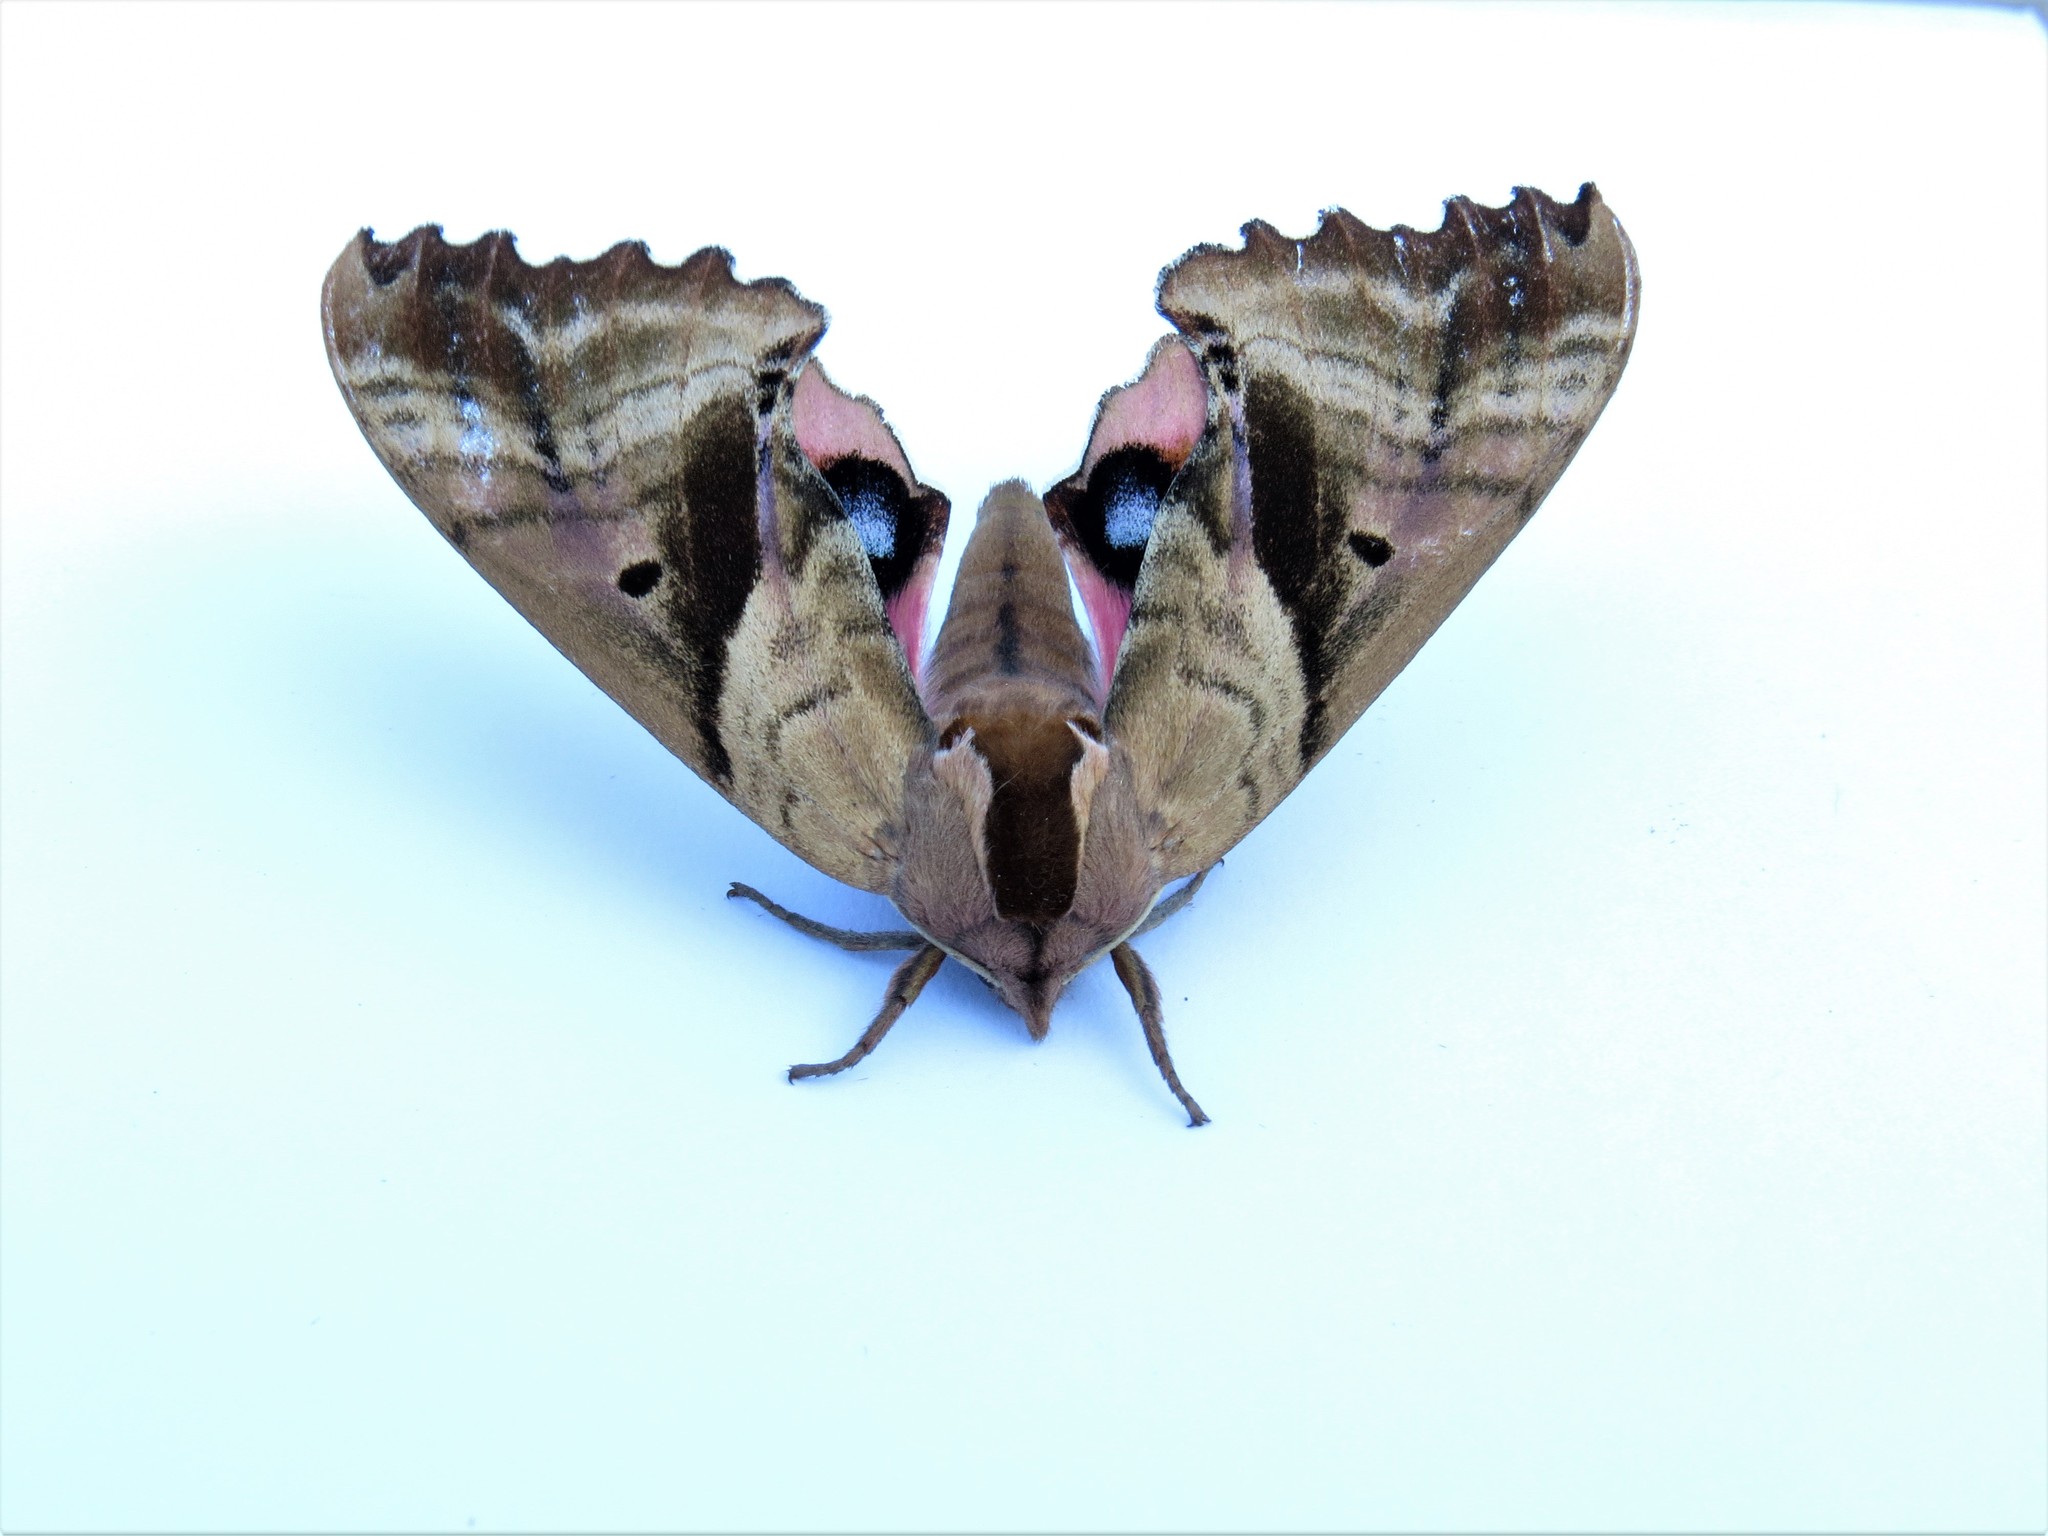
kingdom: Animalia
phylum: Arthropoda
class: Insecta
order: Lepidoptera
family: Sphingidae
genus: Paonias
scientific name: Paonias excaecata
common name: Blind-eyed sphinx
